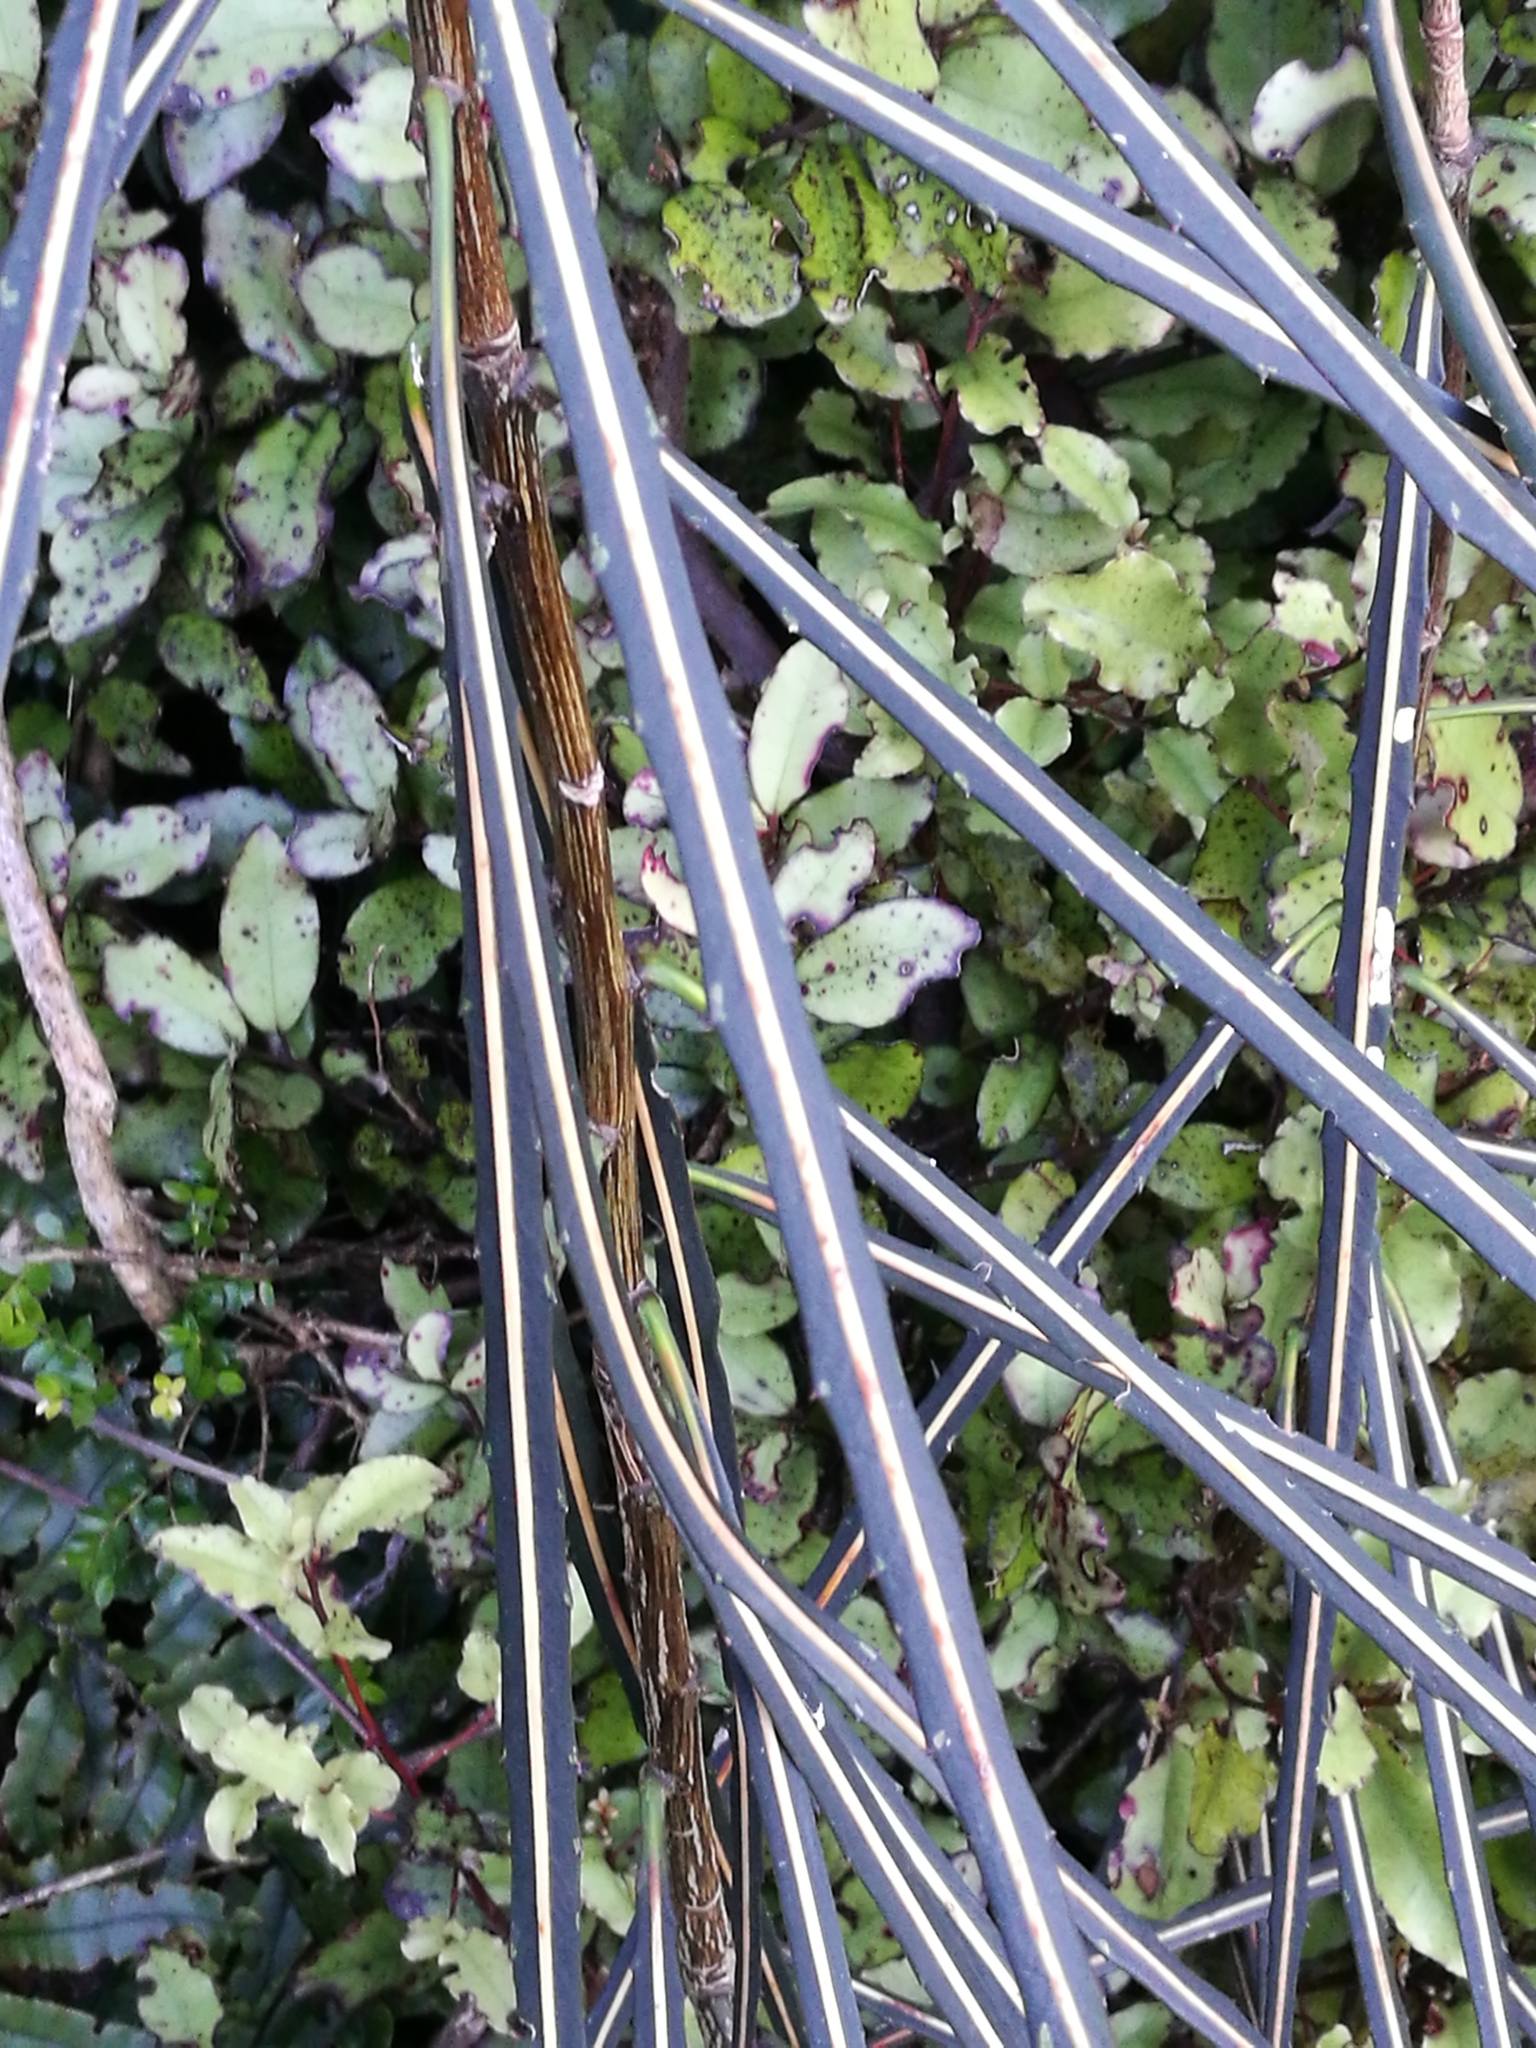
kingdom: Plantae
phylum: Tracheophyta
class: Magnoliopsida
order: Apiales
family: Araliaceae
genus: Pseudopanax
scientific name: Pseudopanax crassifolius
